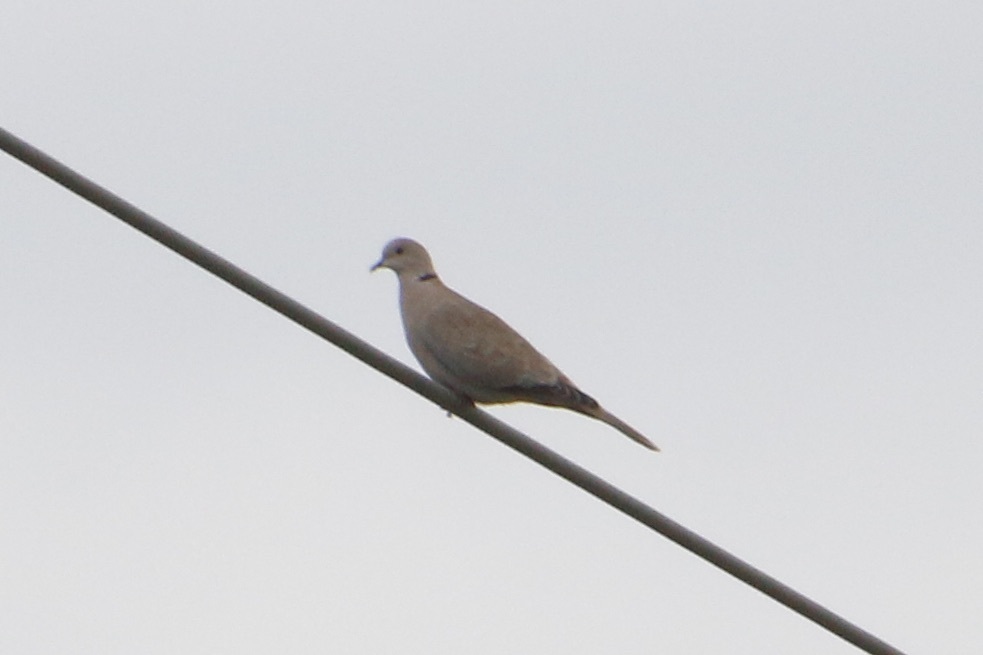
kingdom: Animalia
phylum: Chordata
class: Aves
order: Columbiformes
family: Columbidae
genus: Streptopelia
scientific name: Streptopelia decaocto
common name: Eurasian collared dove
